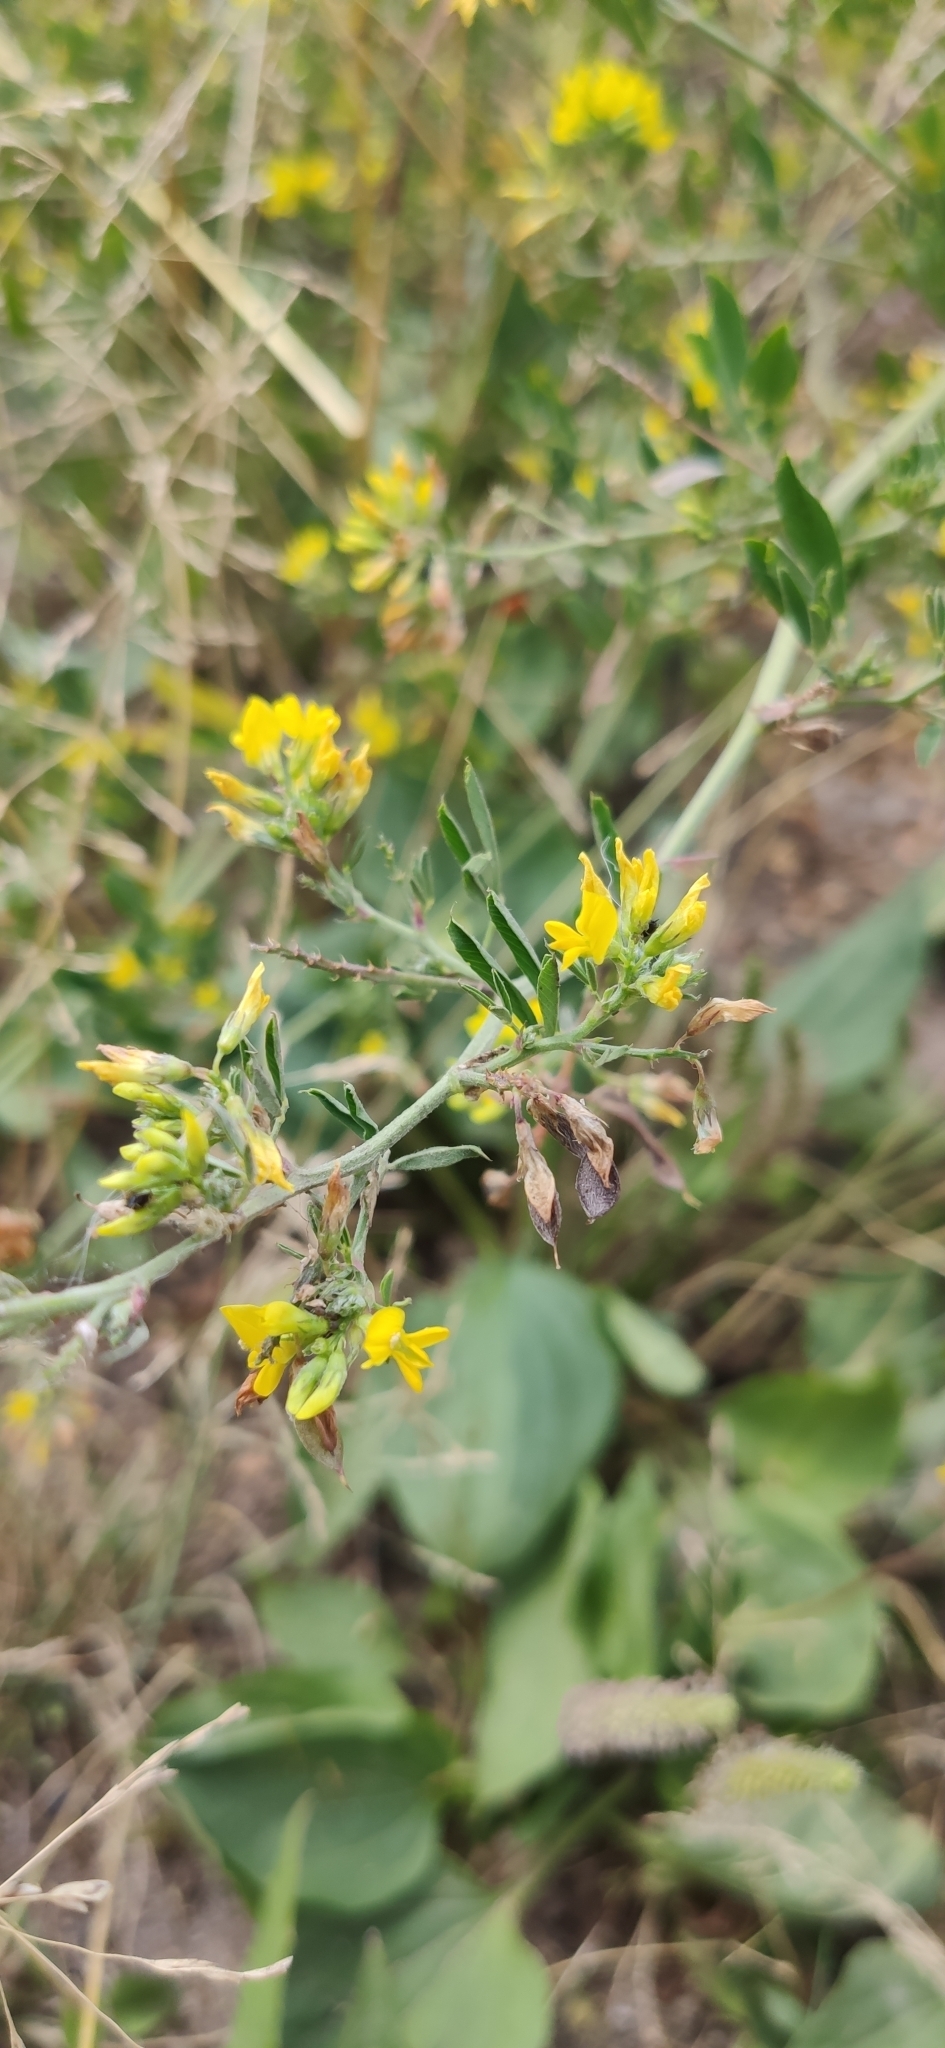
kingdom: Plantae
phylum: Tracheophyta
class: Magnoliopsida
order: Fabales
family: Fabaceae
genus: Medicago
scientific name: Medicago falcata
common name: Sickle medick
